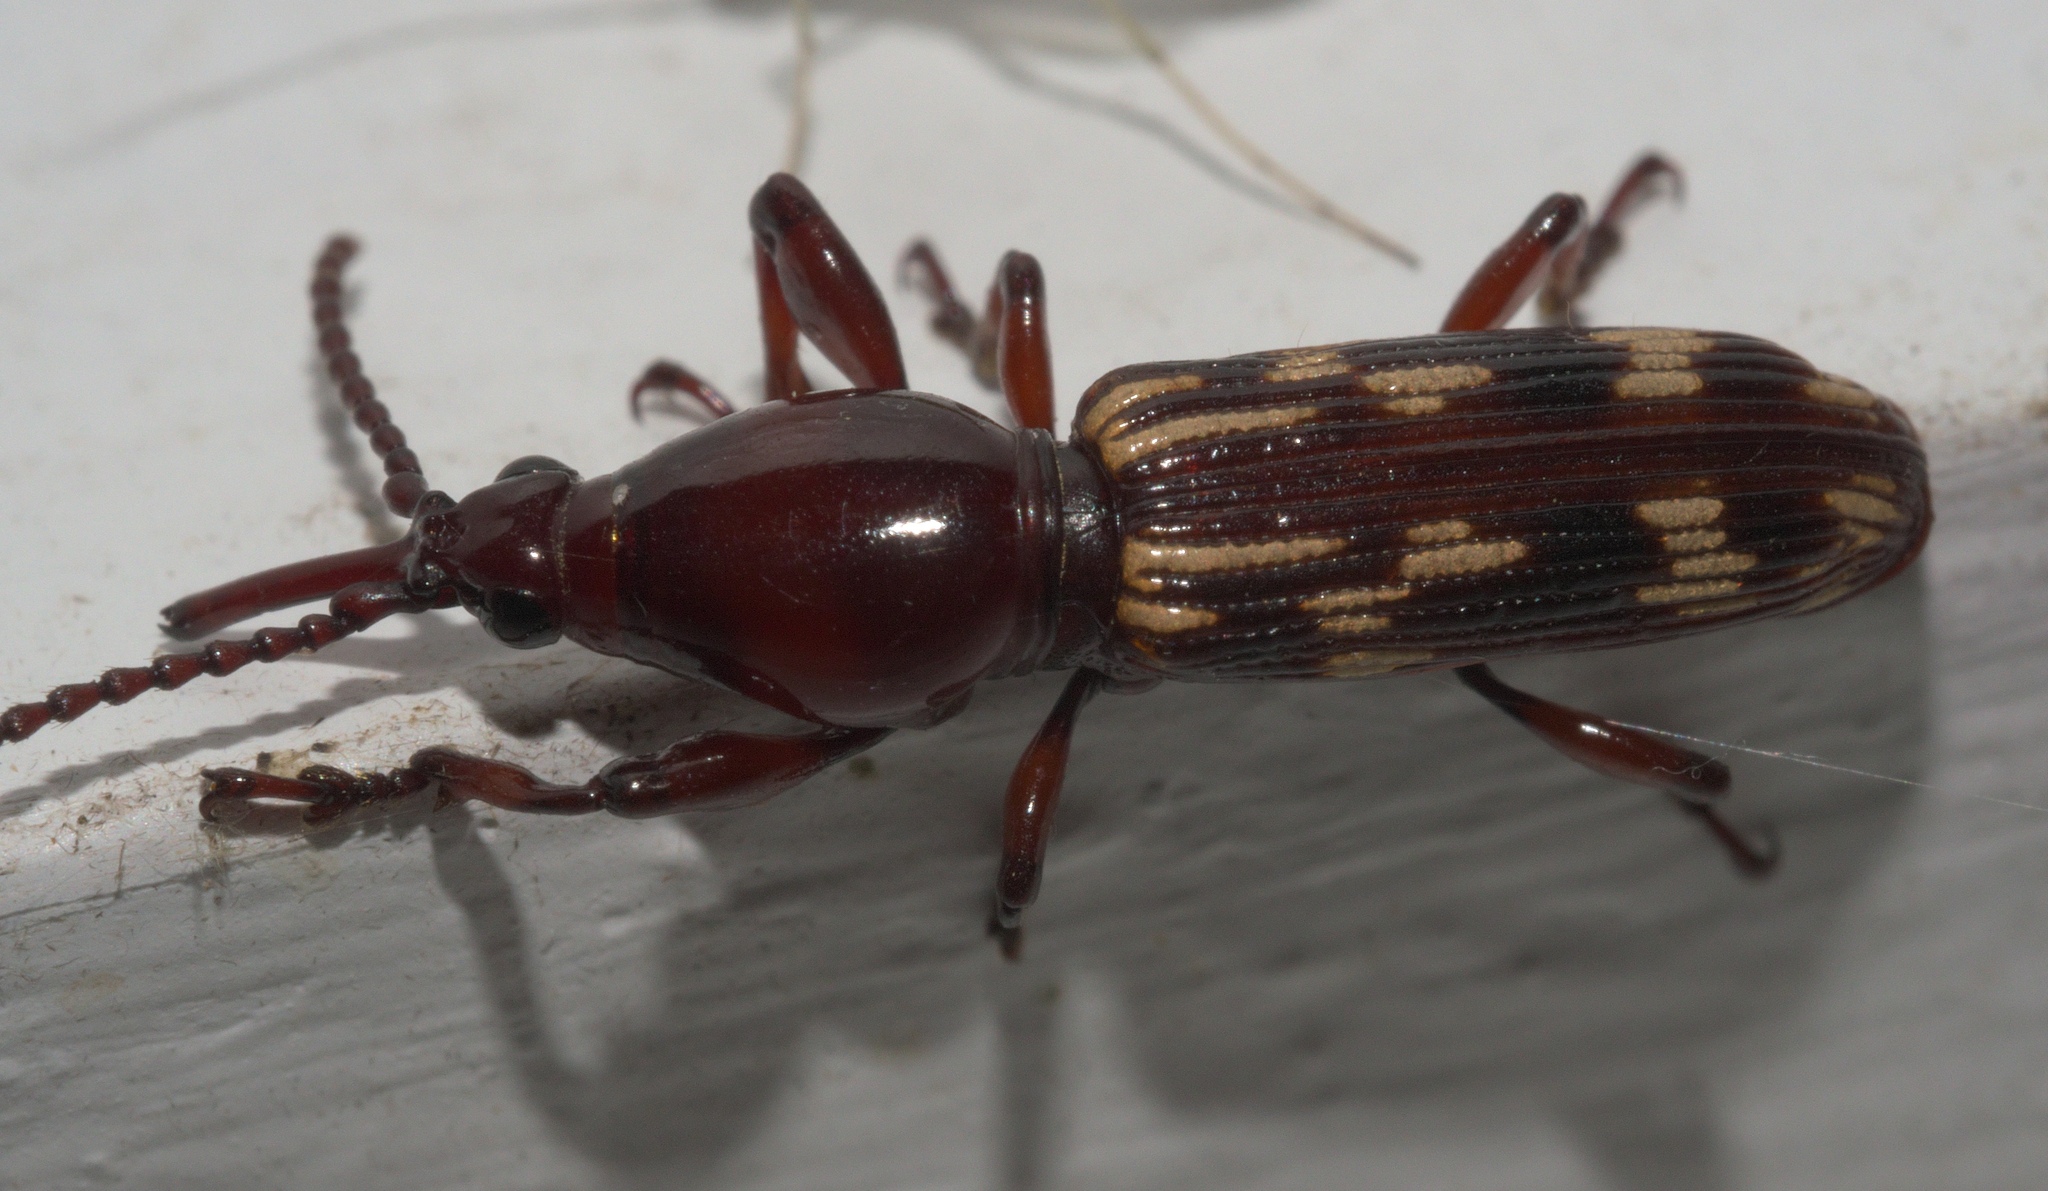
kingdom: Animalia
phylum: Arthropoda
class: Insecta
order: Coleoptera
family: Brentidae
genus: Arrenodes
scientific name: Arrenodes minutus
